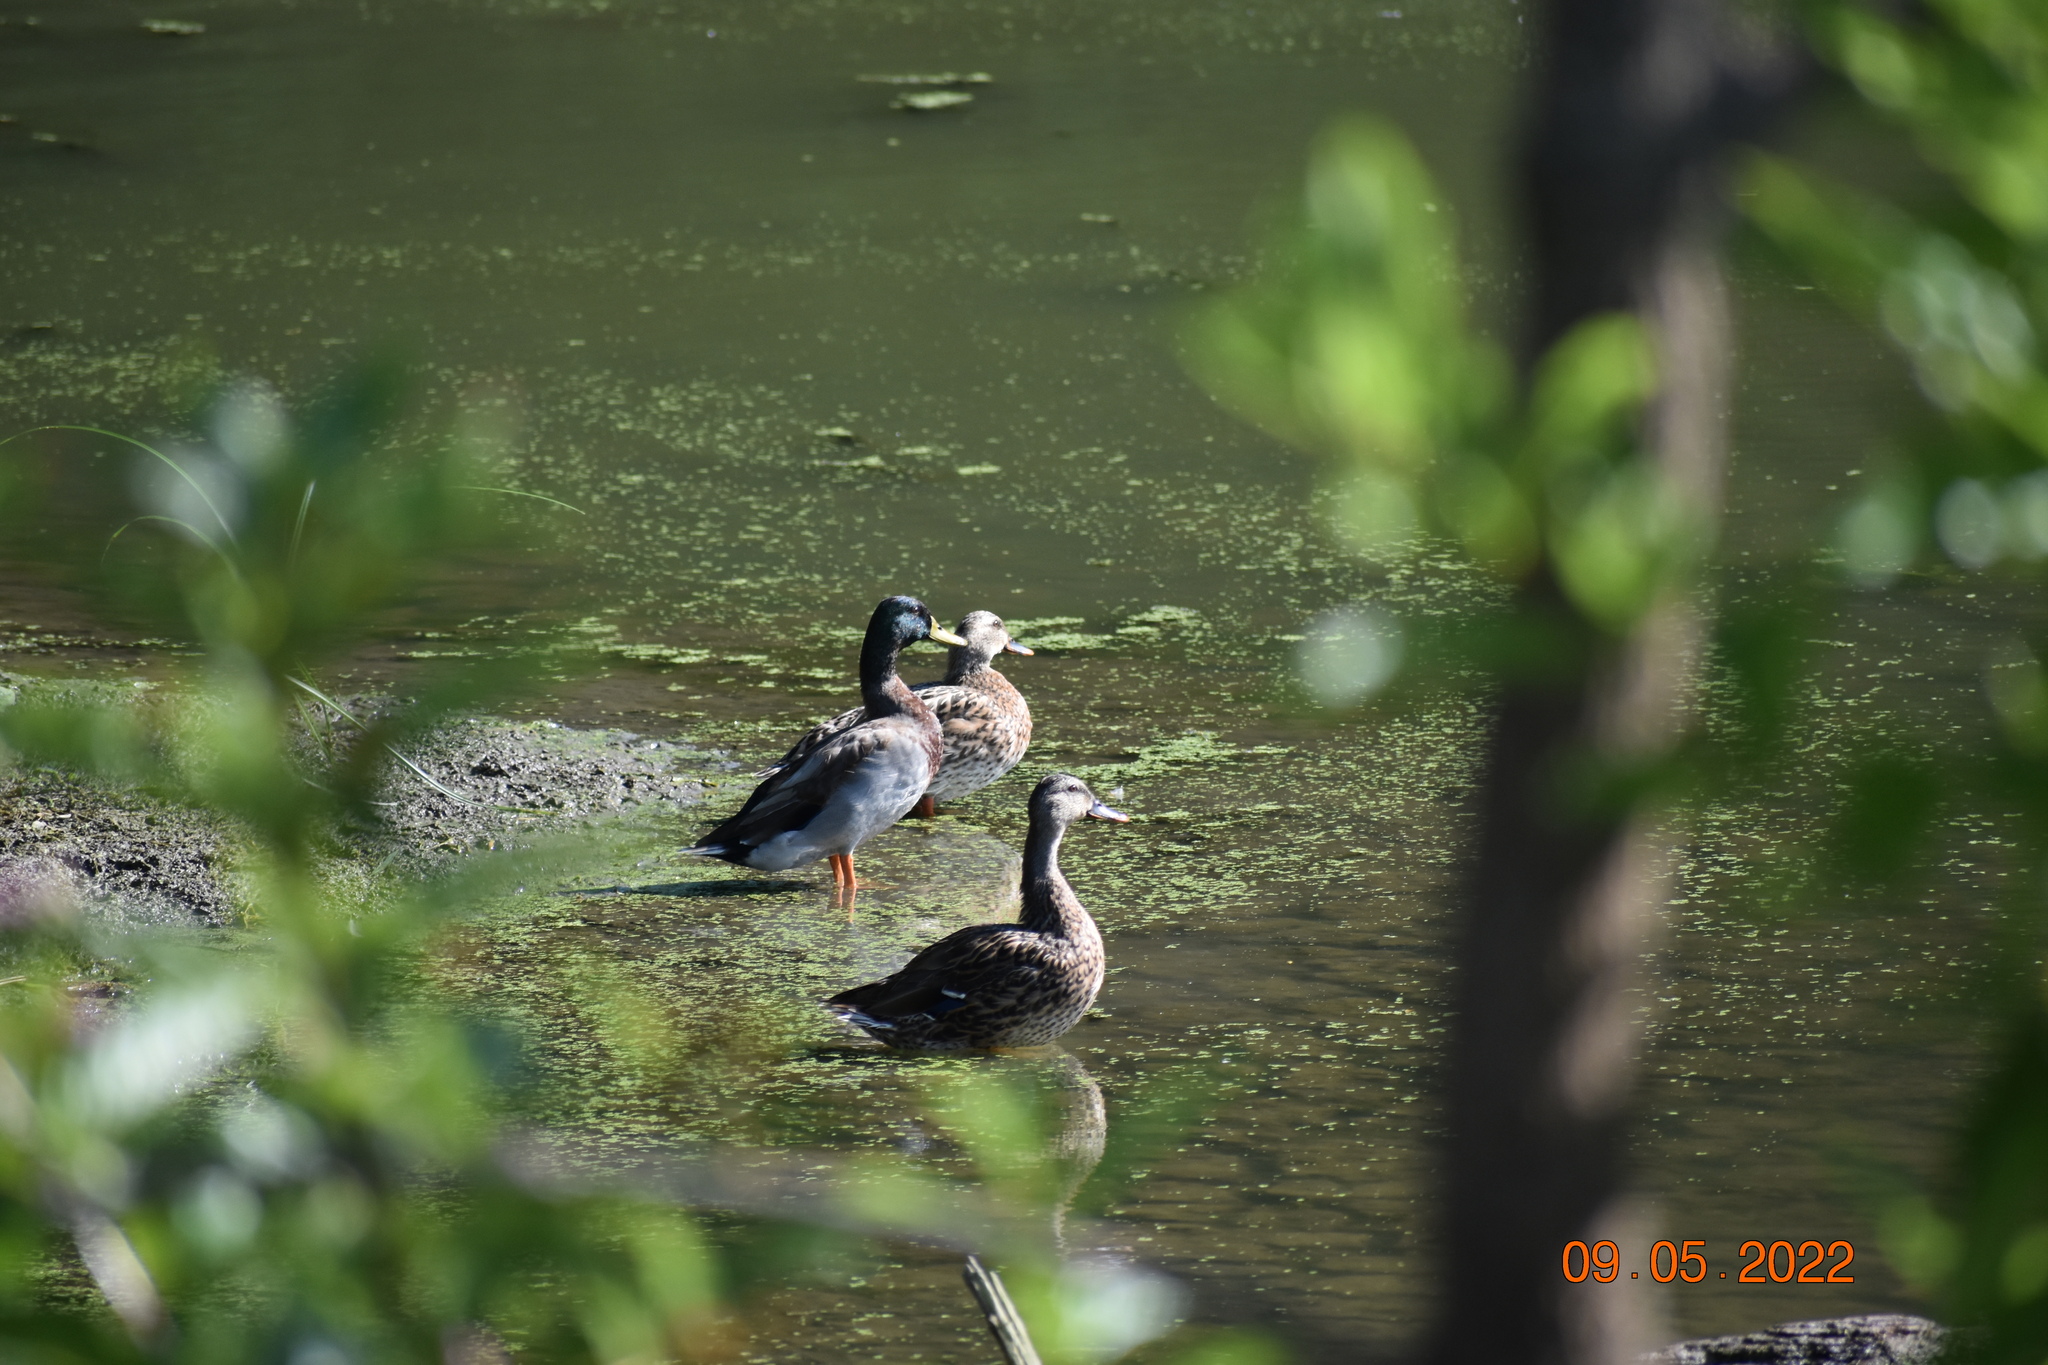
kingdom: Animalia
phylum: Chordata
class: Aves
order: Anseriformes
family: Anatidae
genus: Anas
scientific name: Anas platyrhynchos
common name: Mallard
